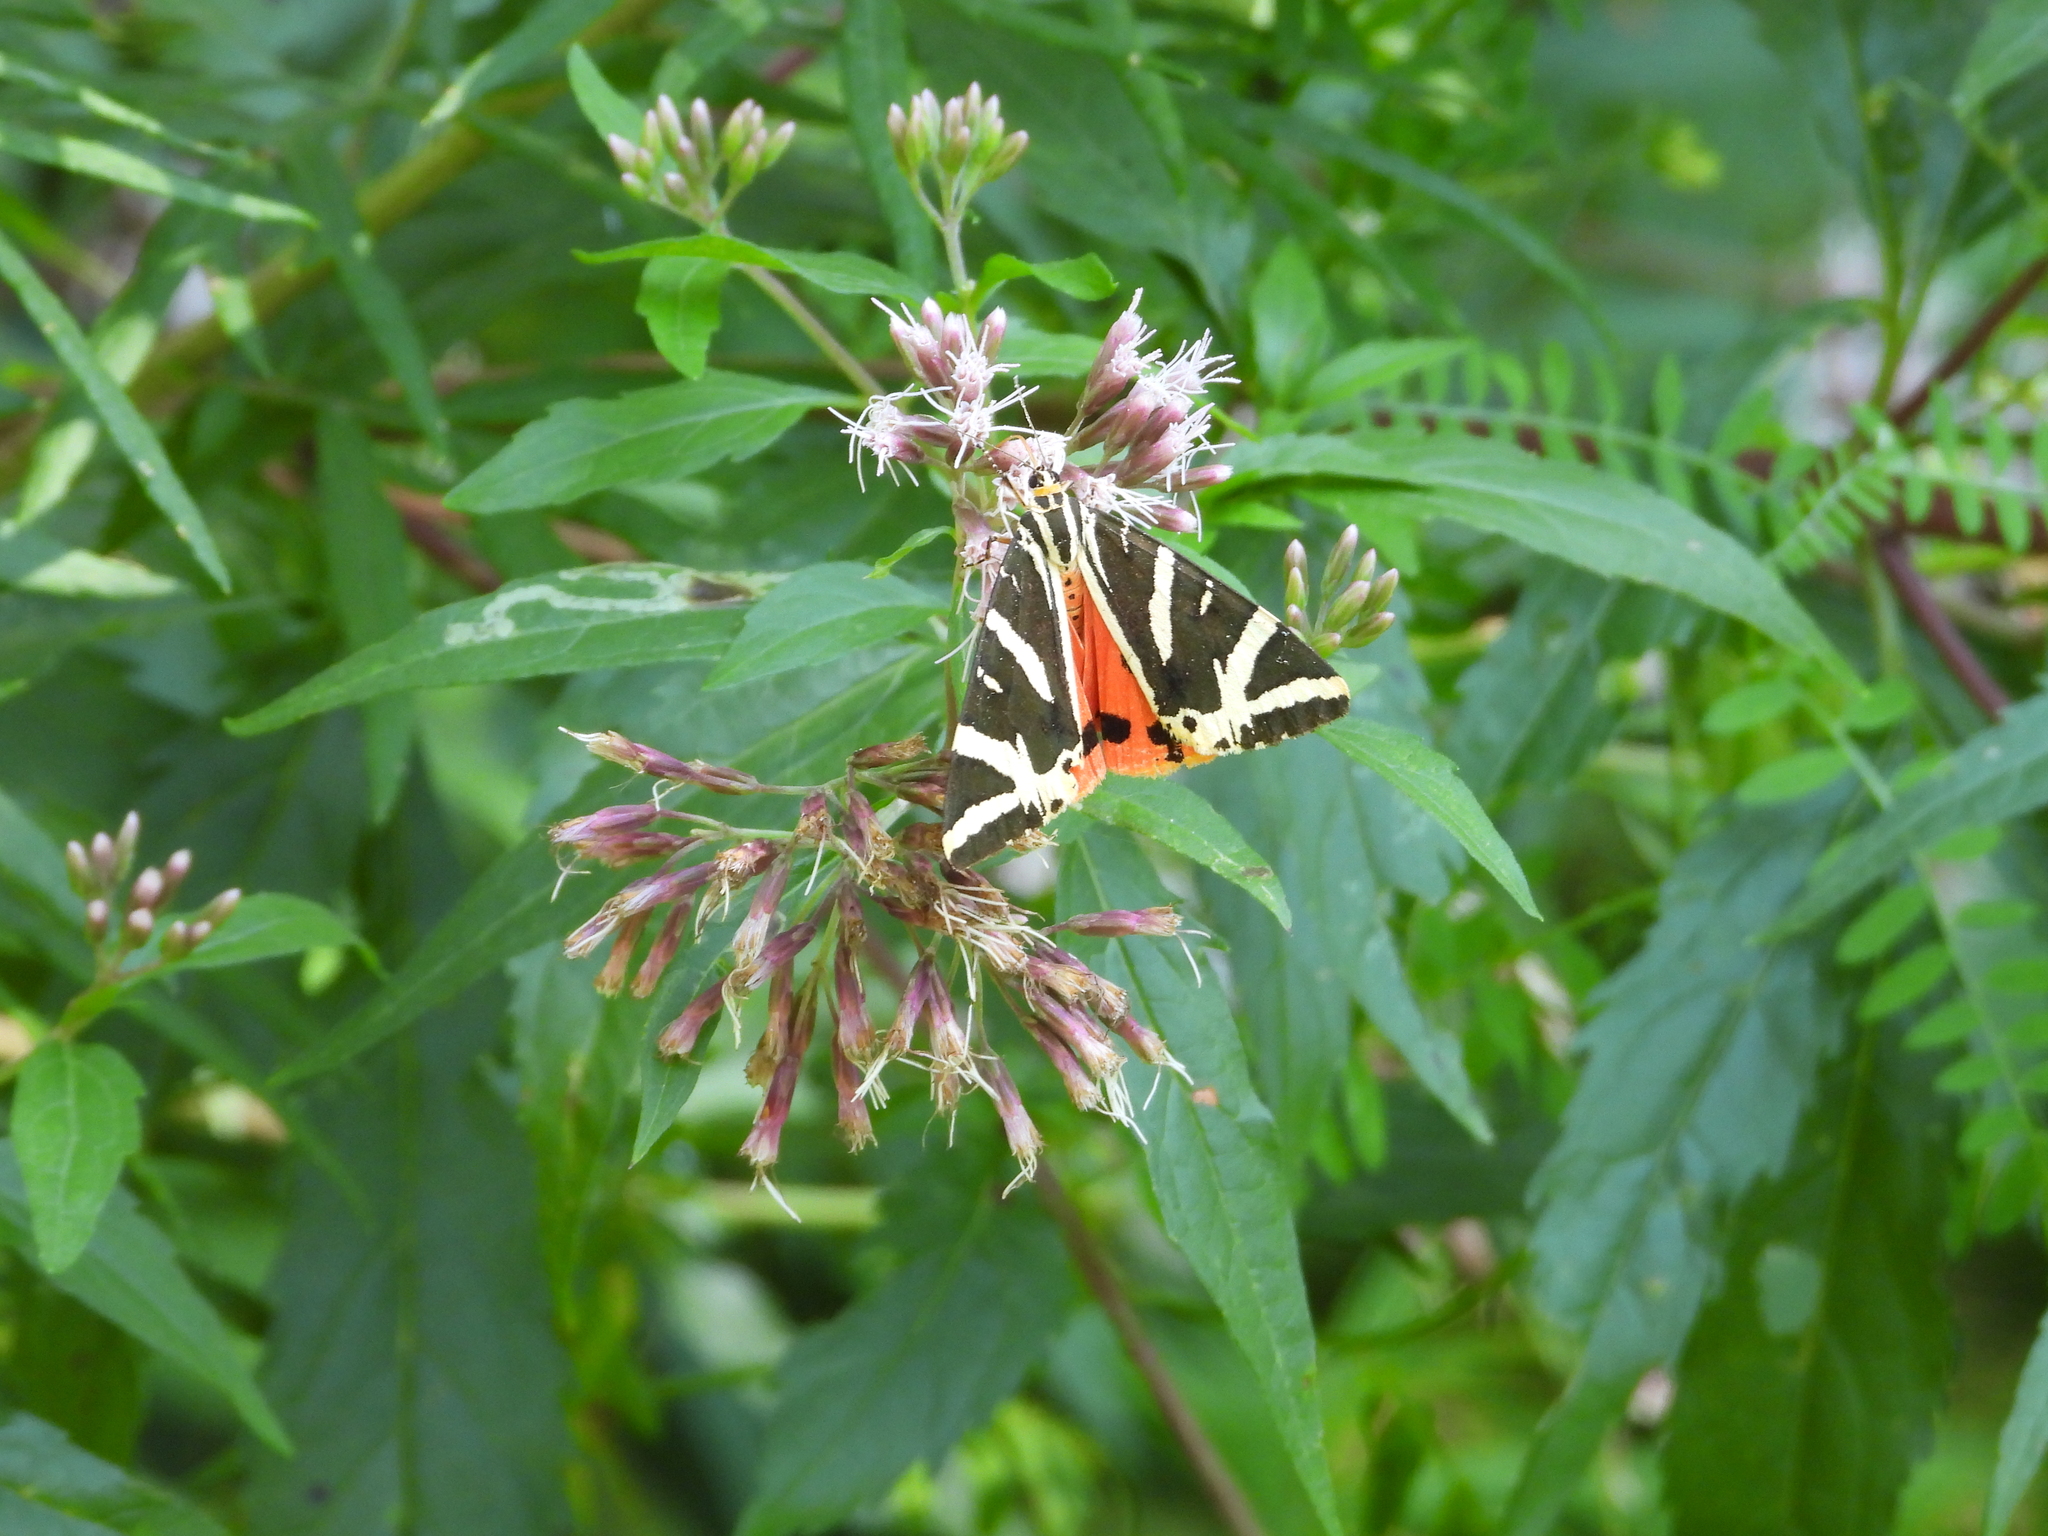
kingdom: Animalia
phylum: Arthropoda
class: Insecta
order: Lepidoptera
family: Erebidae
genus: Euplagia
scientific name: Euplagia quadripunctaria
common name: Jersey tiger
